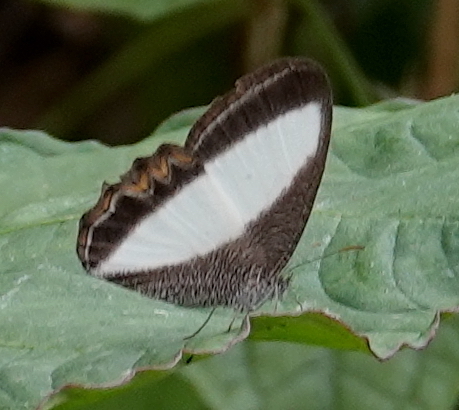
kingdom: Animalia
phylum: Arthropoda
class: Insecta
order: Lepidoptera
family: Nymphalidae
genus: Oressinoma
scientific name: Oressinoma typhla
